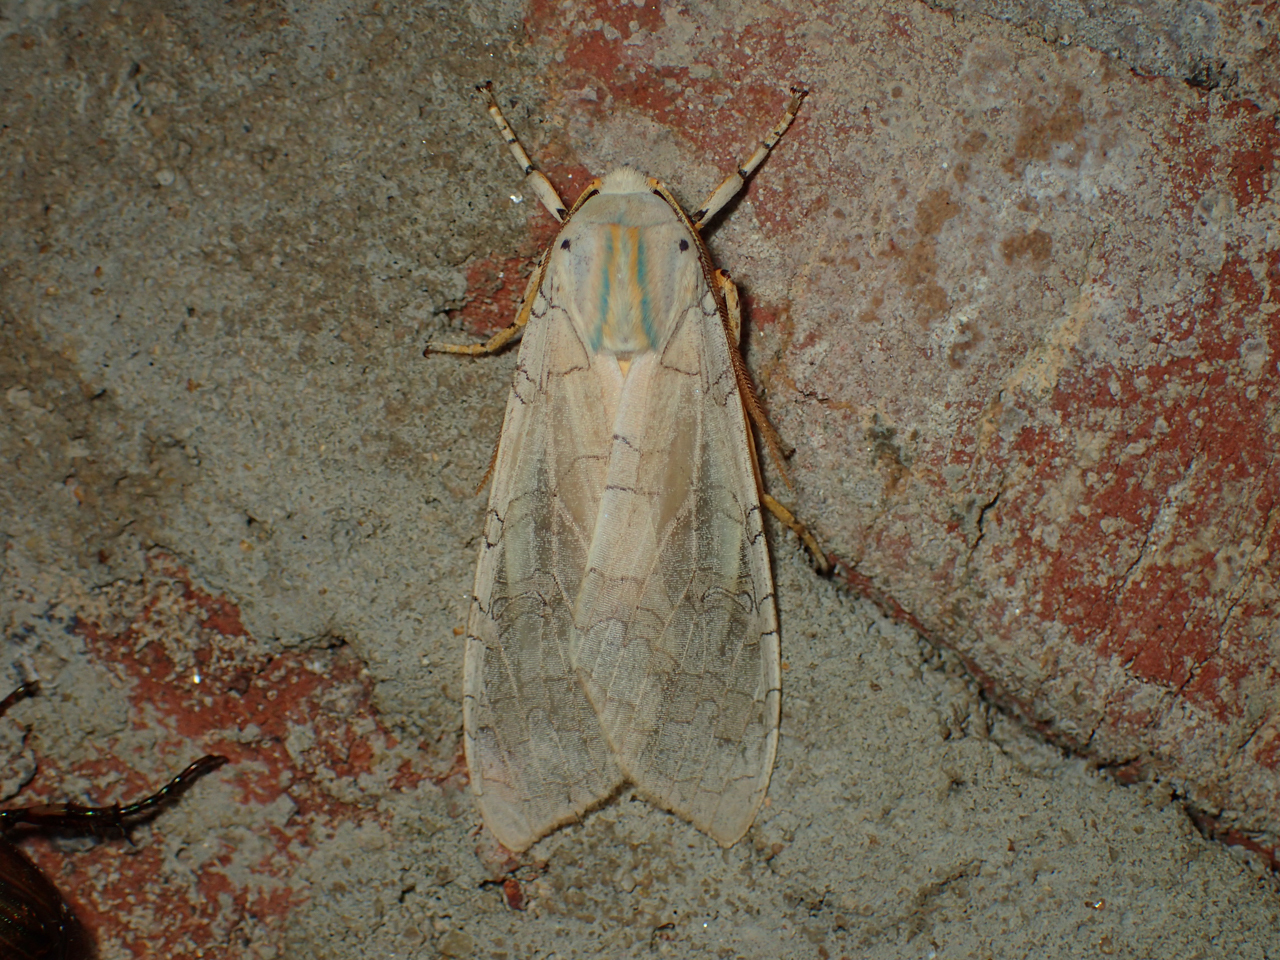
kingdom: Animalia
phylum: Arthropoda
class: Insecta
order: Lepidoptera
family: Erebidae
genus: Halysidota
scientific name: Halysidota
